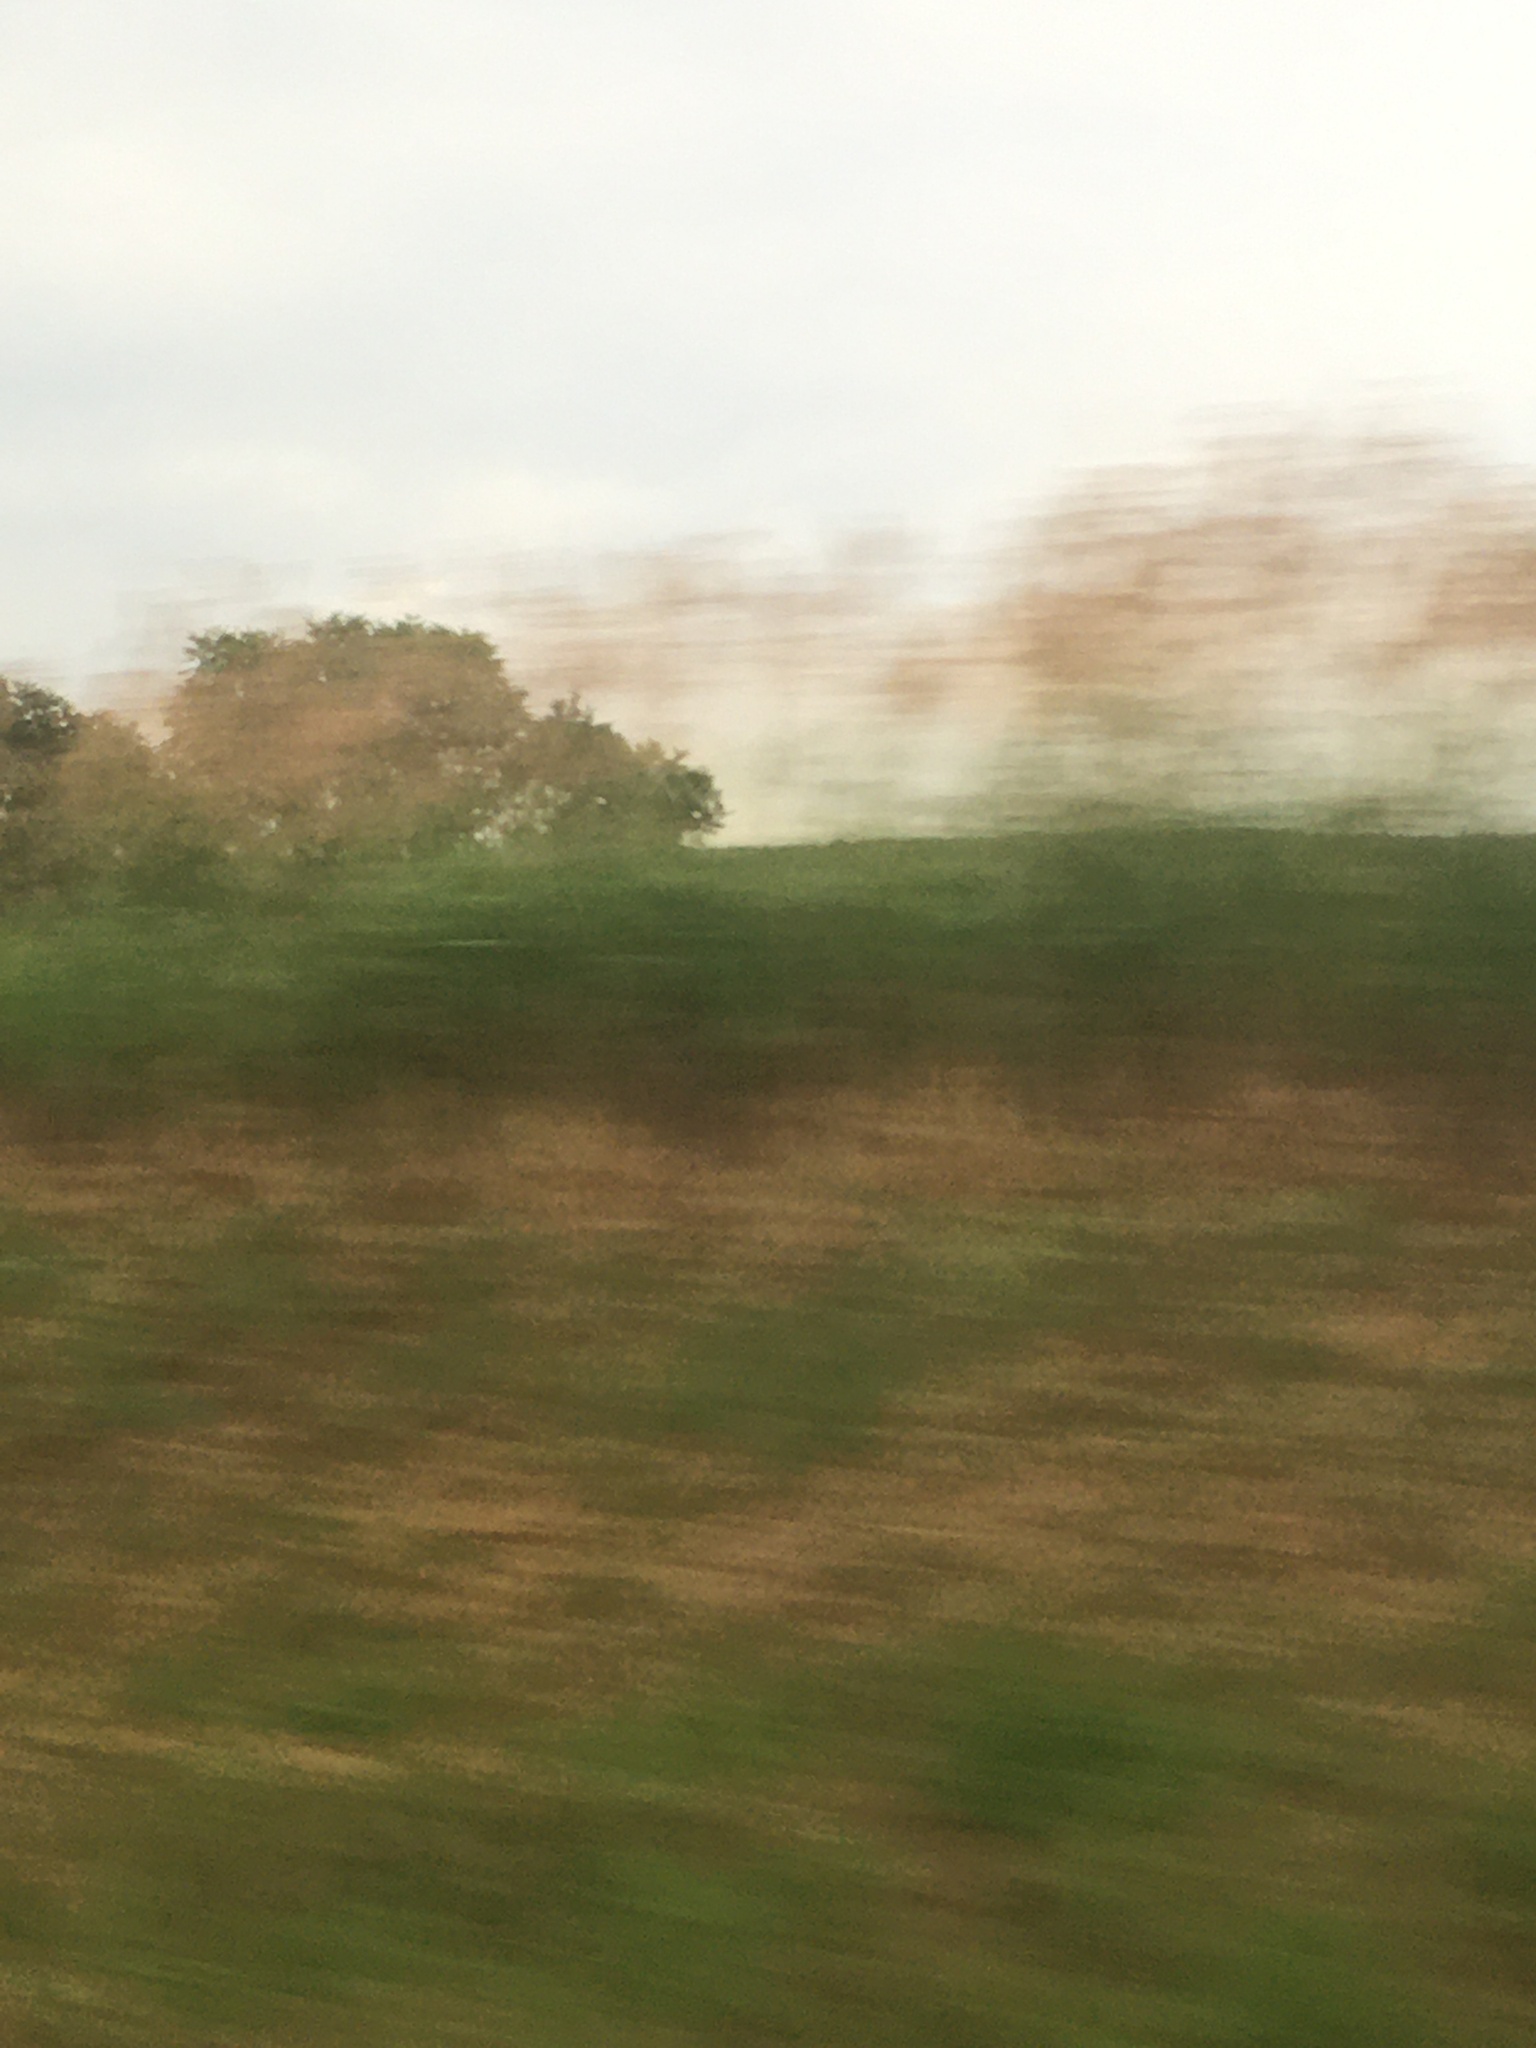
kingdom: Plantae
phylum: Tracheophyta
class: Liliopsida
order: Poales
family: Poaceae
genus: Phragmites
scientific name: Phragmites australis
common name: Common reed
